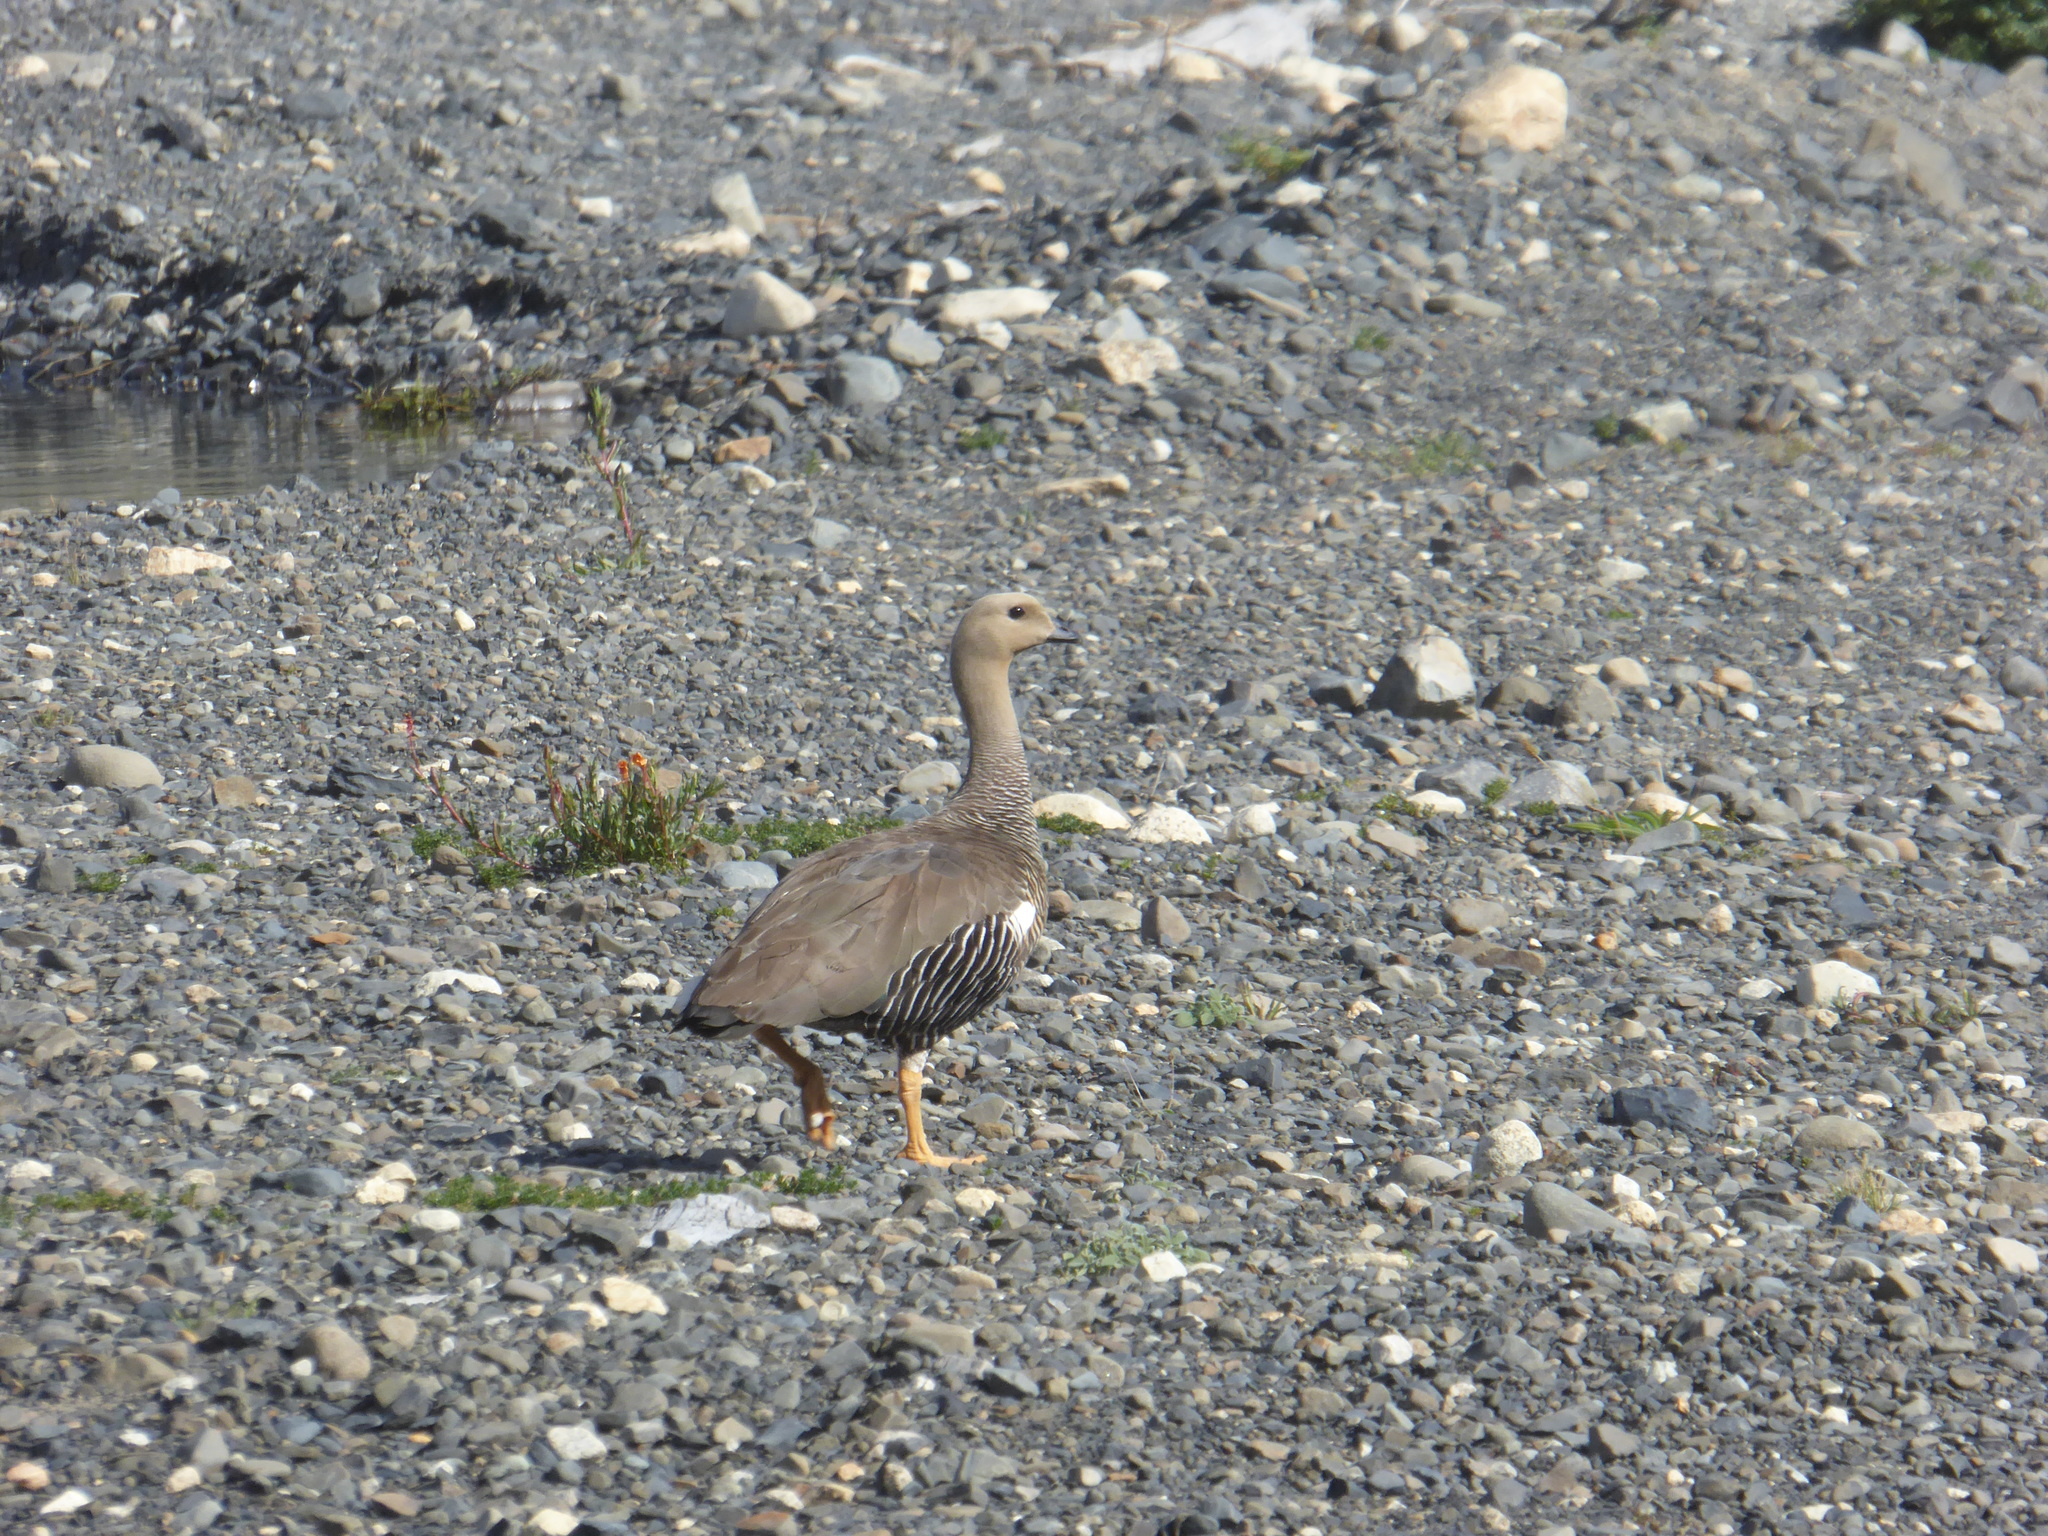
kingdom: Animalia
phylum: Chordata
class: Aves
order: Anseriformes
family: Anatidae
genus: Chloephaga
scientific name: Chloephaga picta
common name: Upland goose
